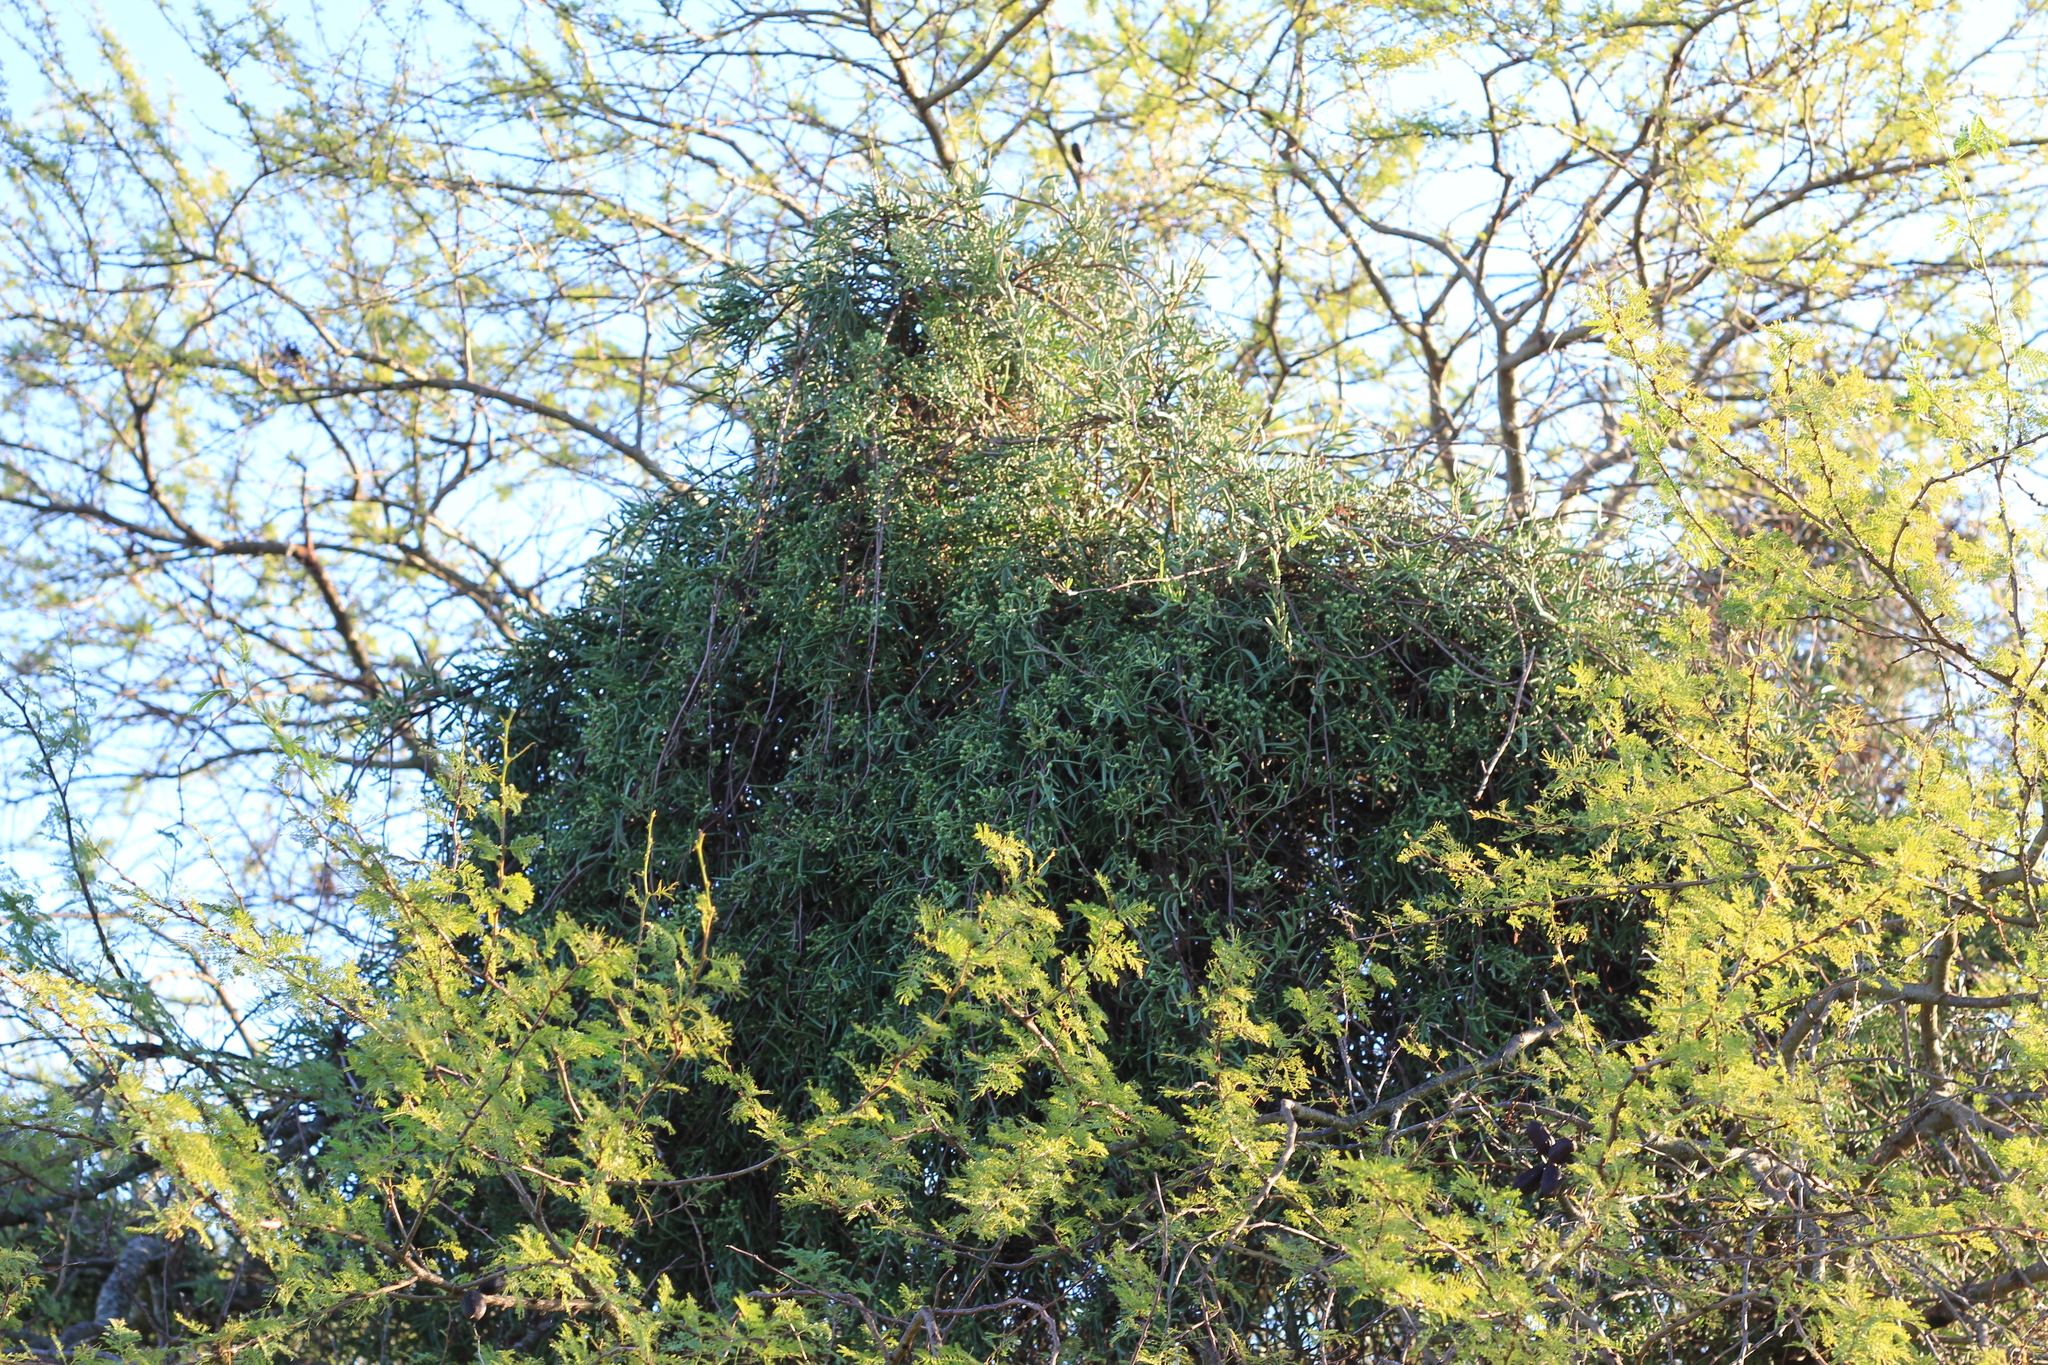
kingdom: Plantae
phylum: Tracheophyta
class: Magnoliopsida
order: Santalales
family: Loranthaceae
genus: Tripodanthus
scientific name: Tripodanthus flagellaris
